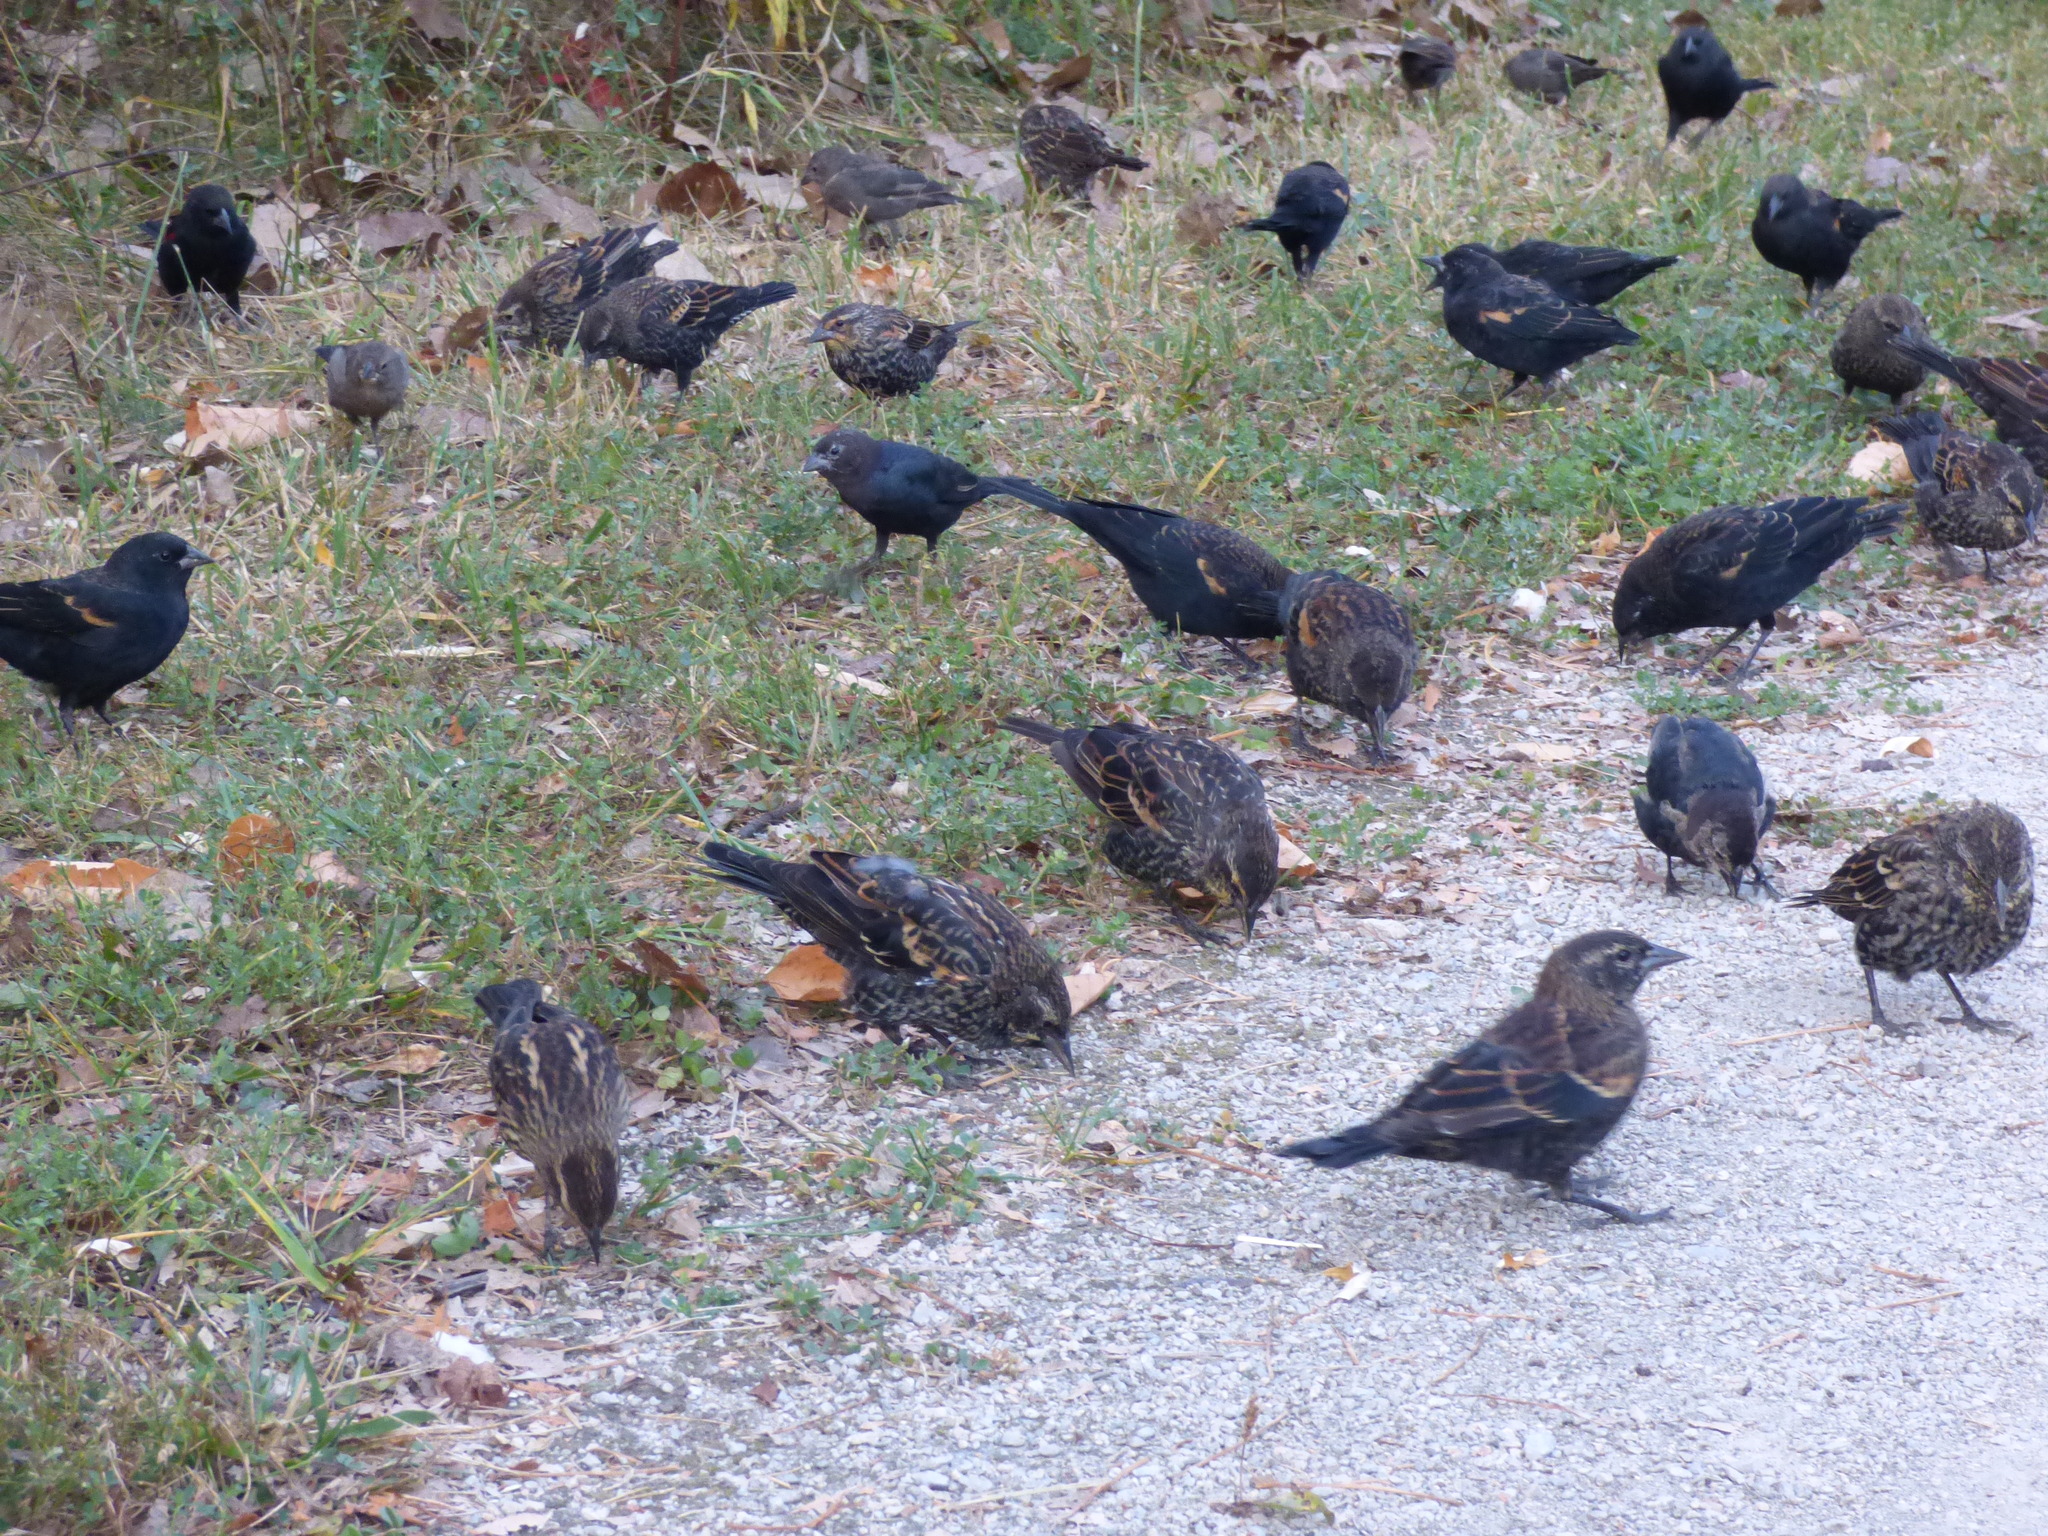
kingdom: Animalia
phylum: Chordata
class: Aves
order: Passeriformes
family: Icteridae
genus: Agelaius
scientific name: Agelaius phoeniceus
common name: Red-winged blackbird
